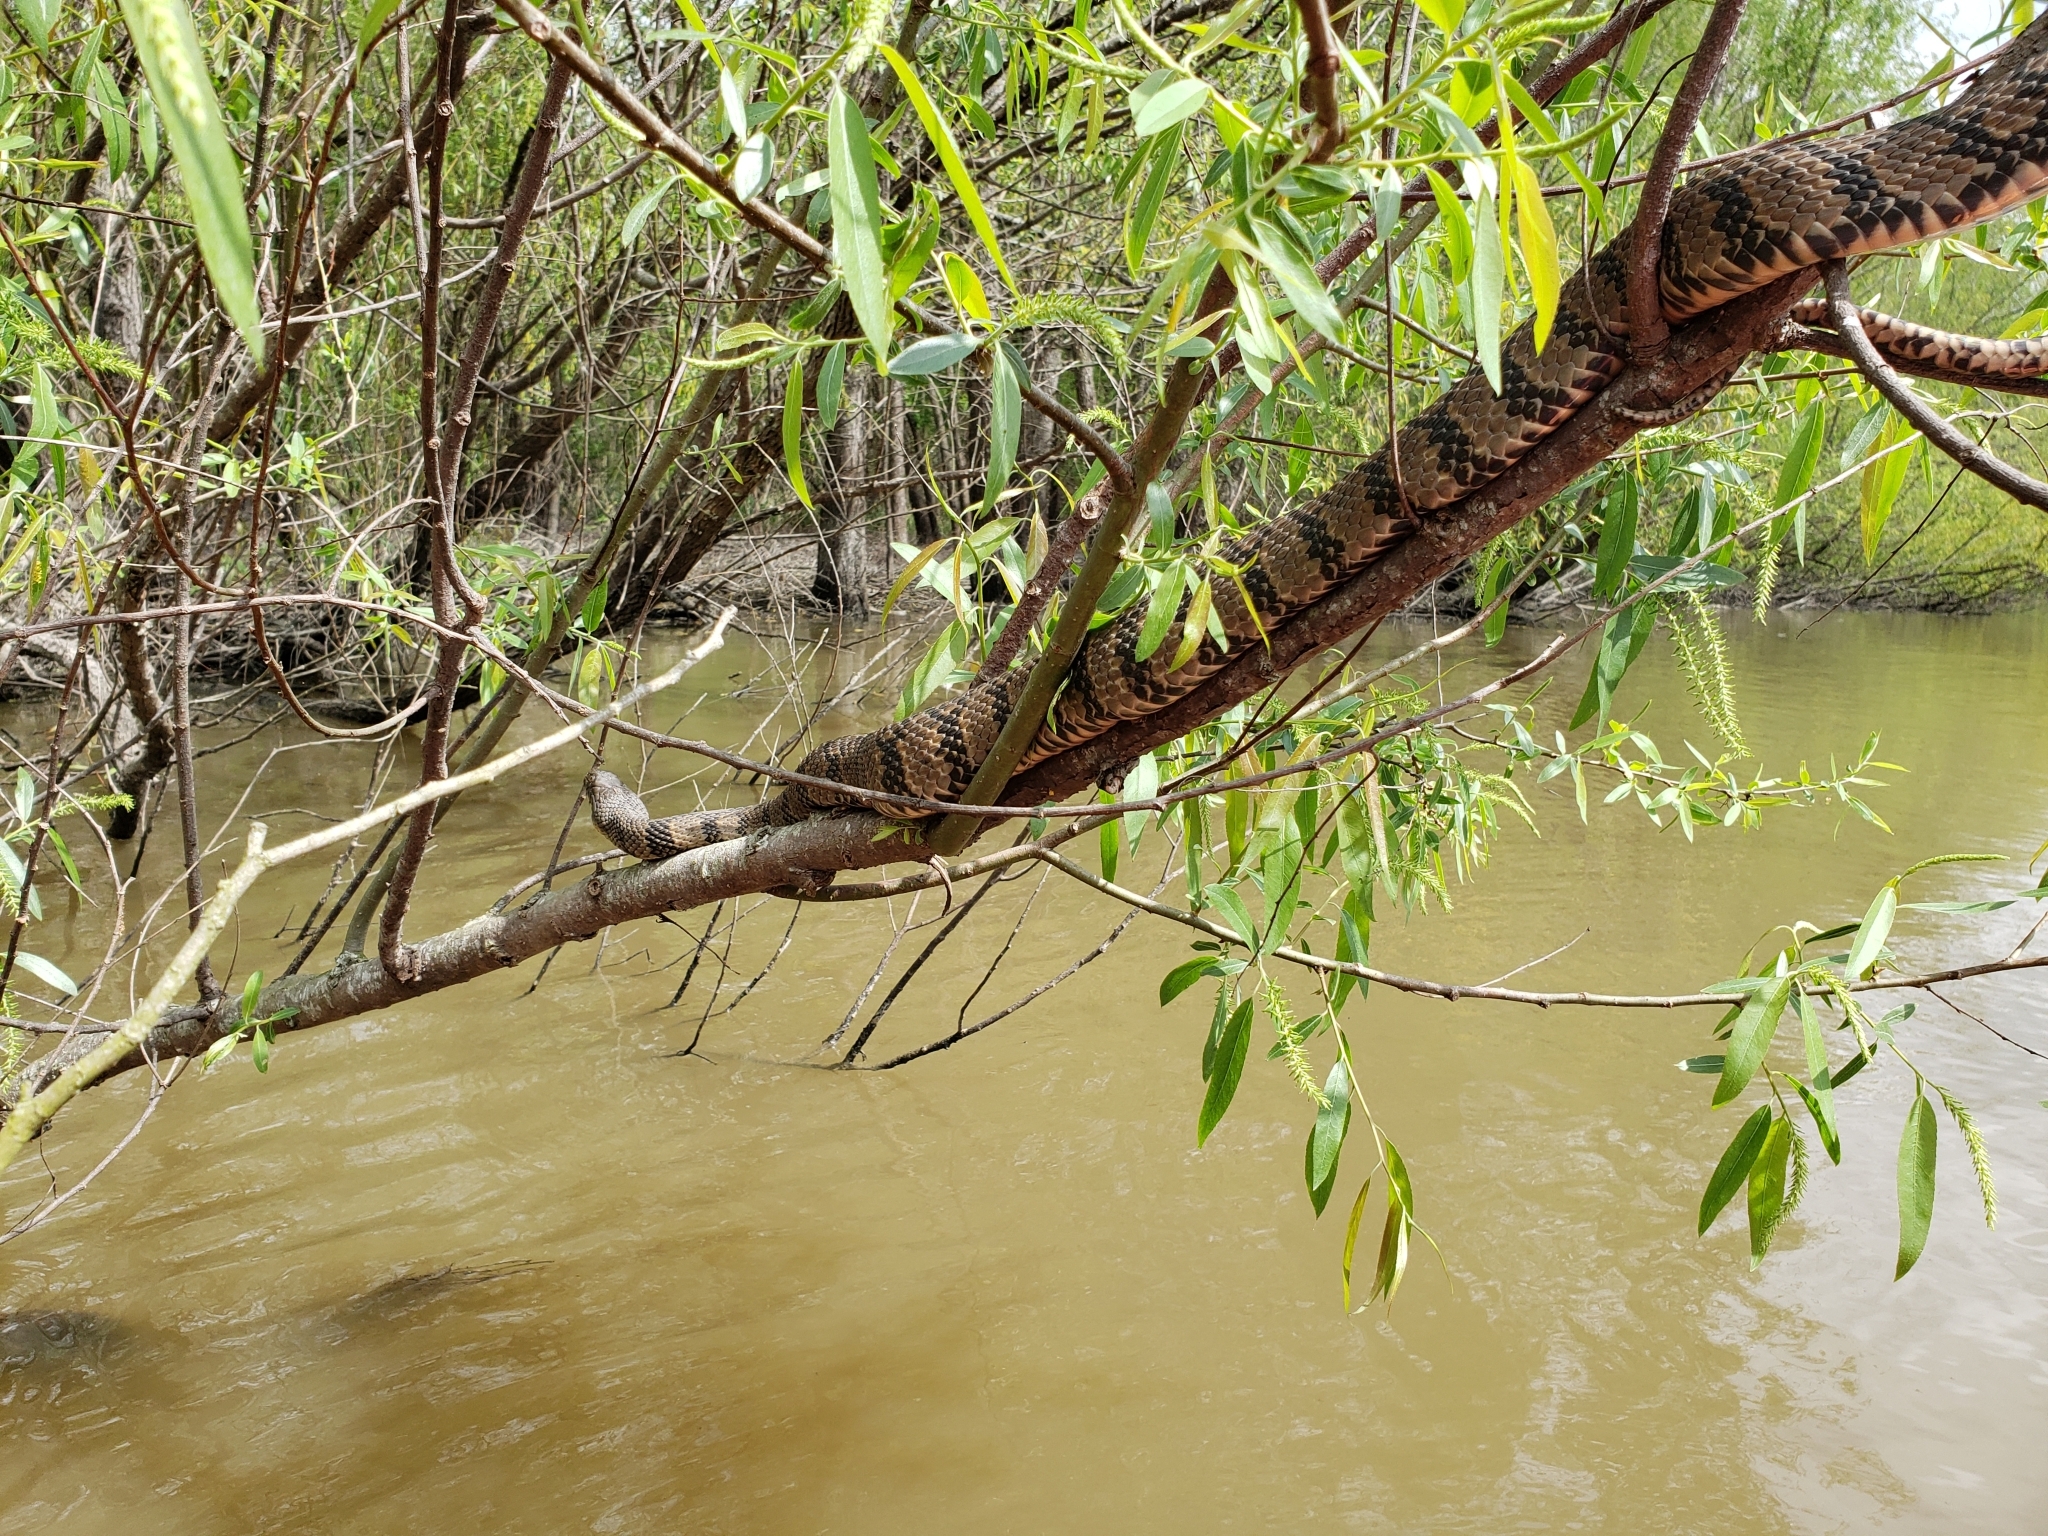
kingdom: Animalia
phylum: Chordata
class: Squamata
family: Colubridae
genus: Nerodia
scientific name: Nerodia rhombifer
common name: Diamondback water snake
